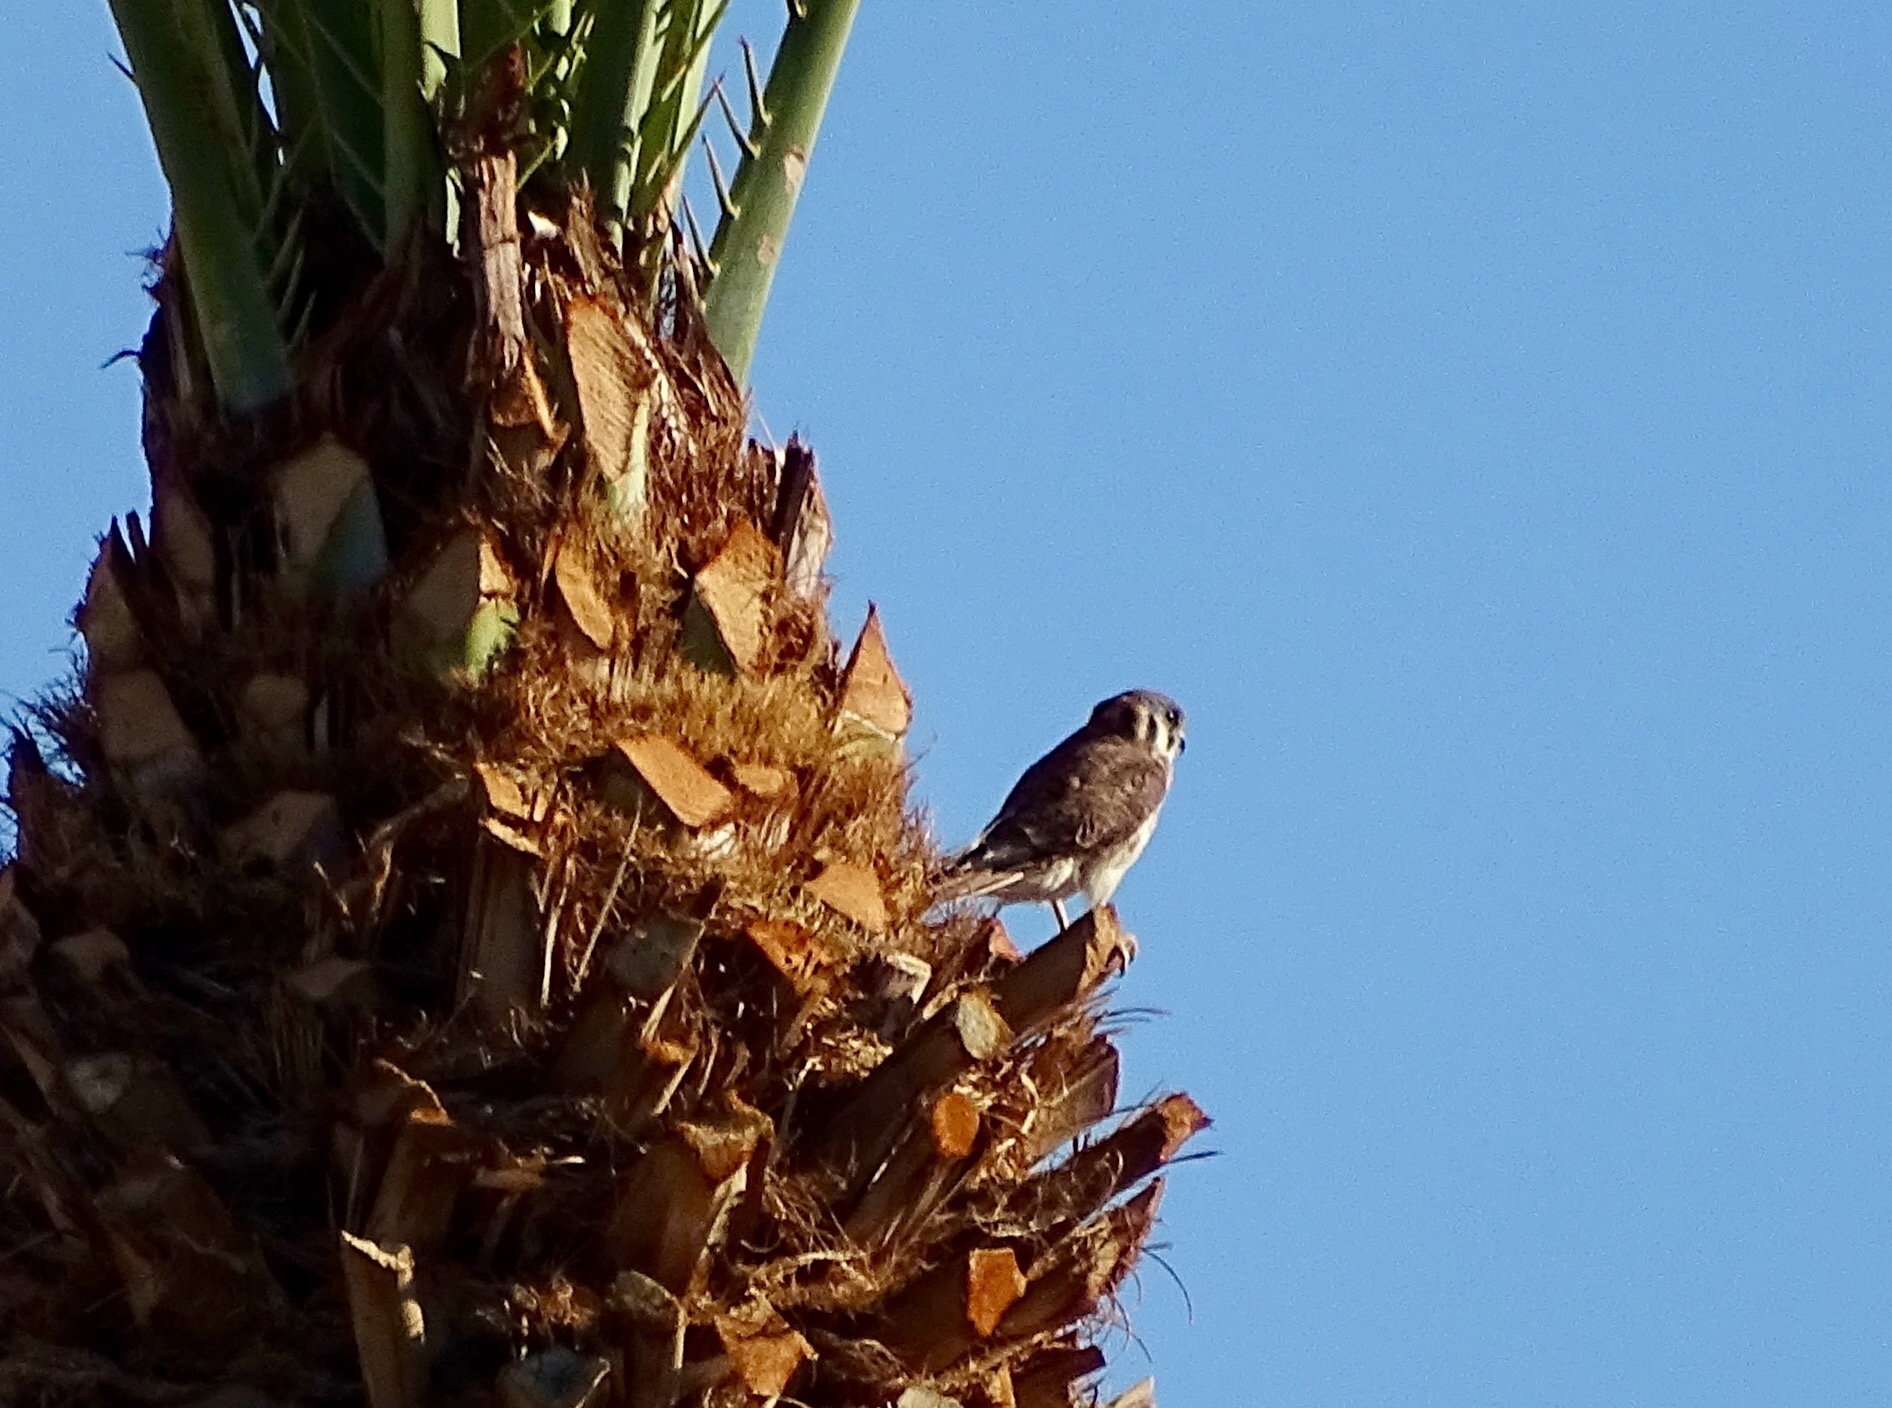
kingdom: Animalia
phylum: Chordata
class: Aves
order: Falconiformes
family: Falconidae
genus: Falco
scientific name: Falco sparverius
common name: American kestrel
